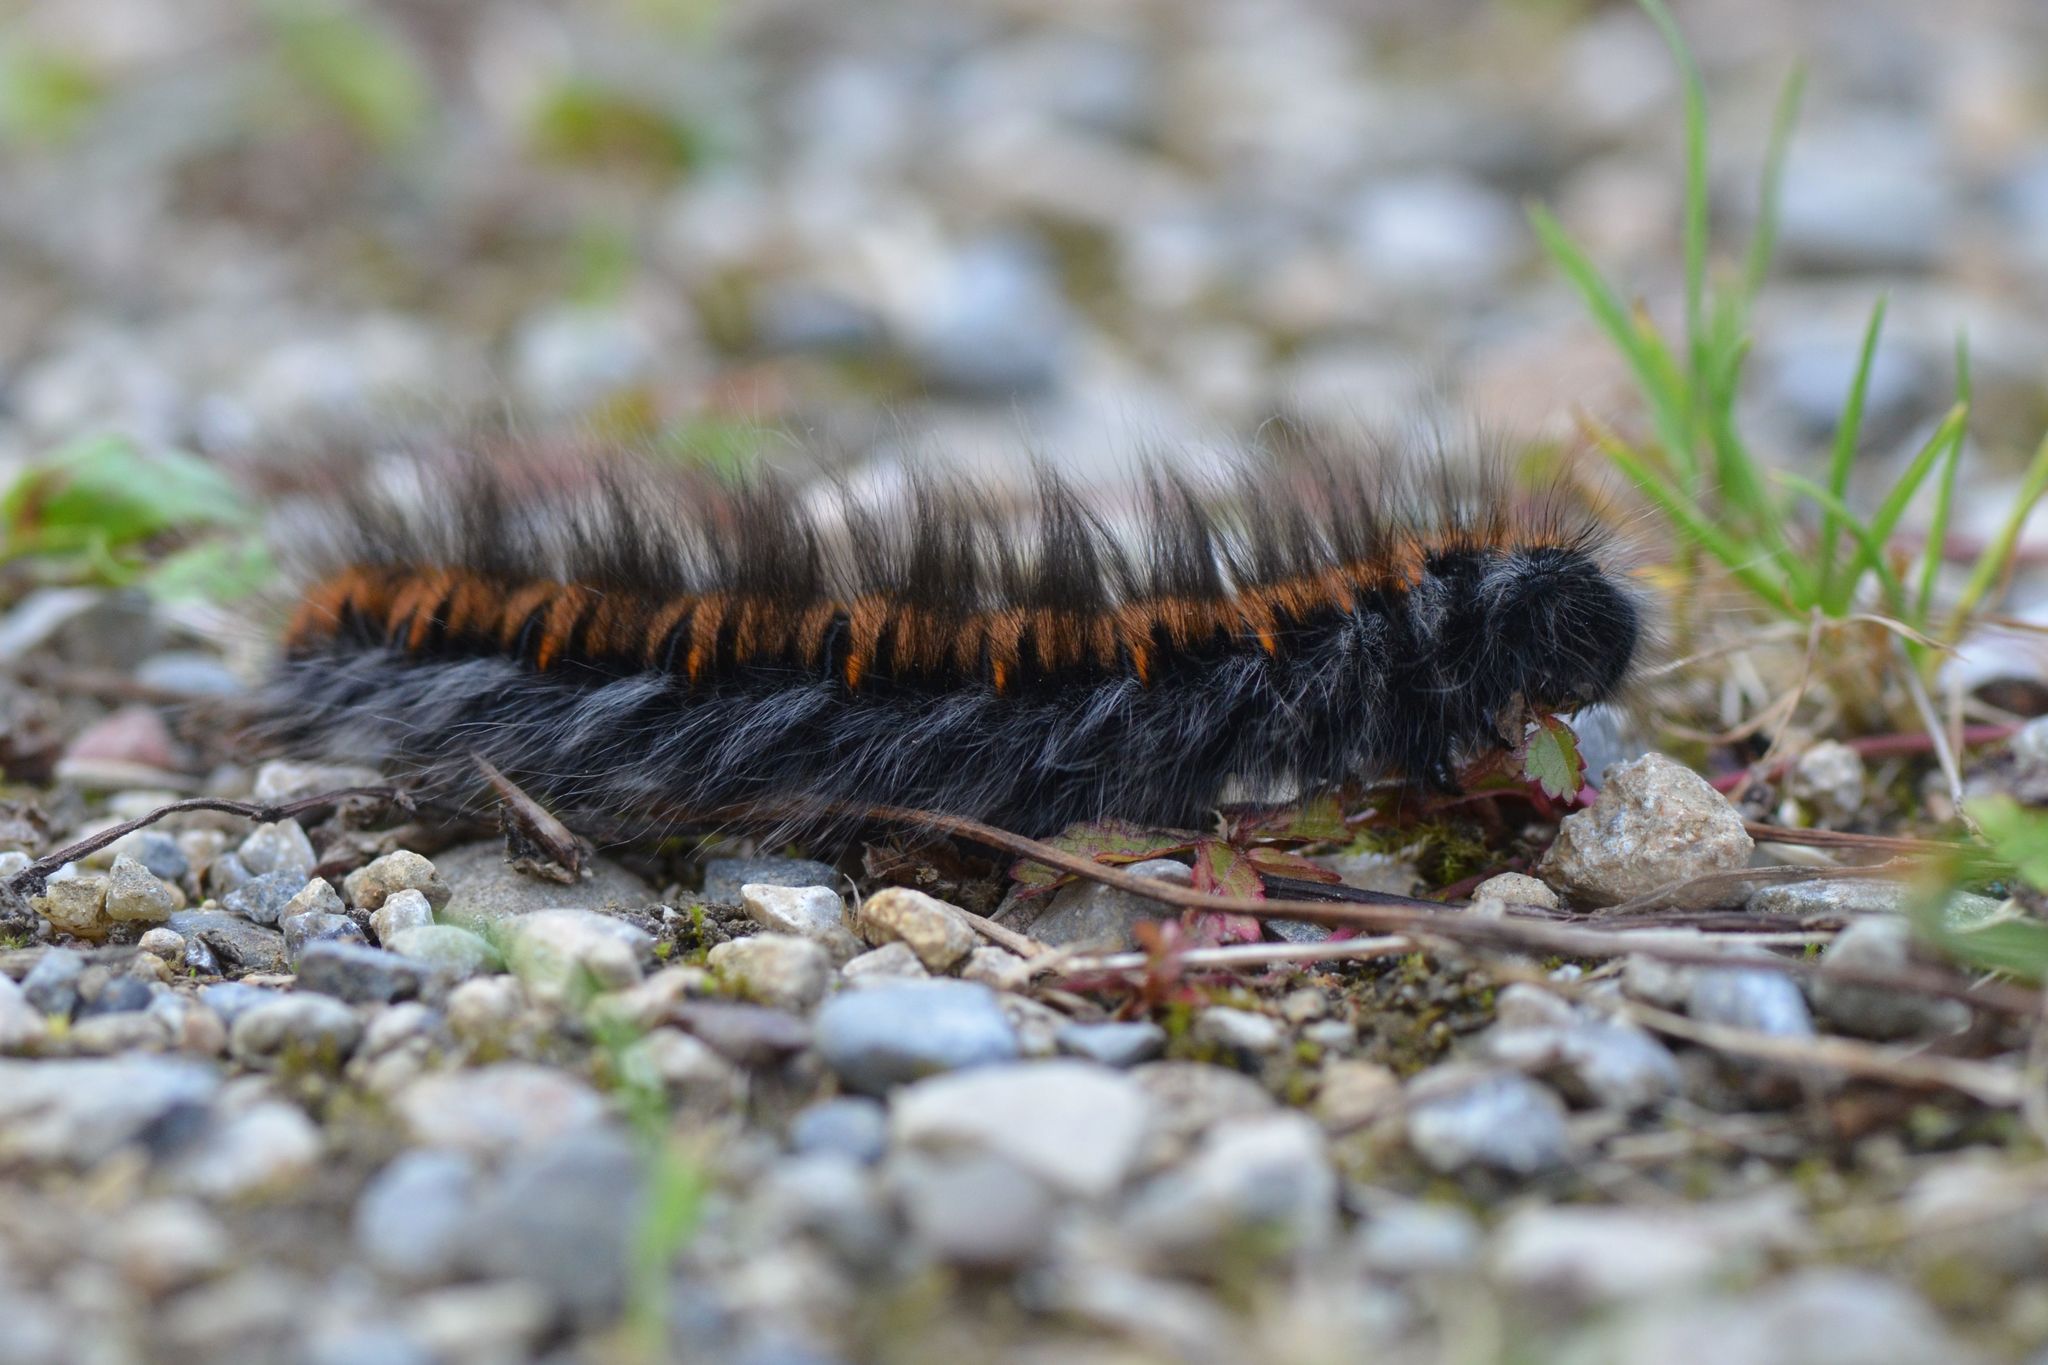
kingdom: Animalia
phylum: Arthropoda
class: Insecta
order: Lepidoptera
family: Lasiocampidae
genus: Macrothylacia
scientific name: Macrothylacia rubi
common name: Fox moth
